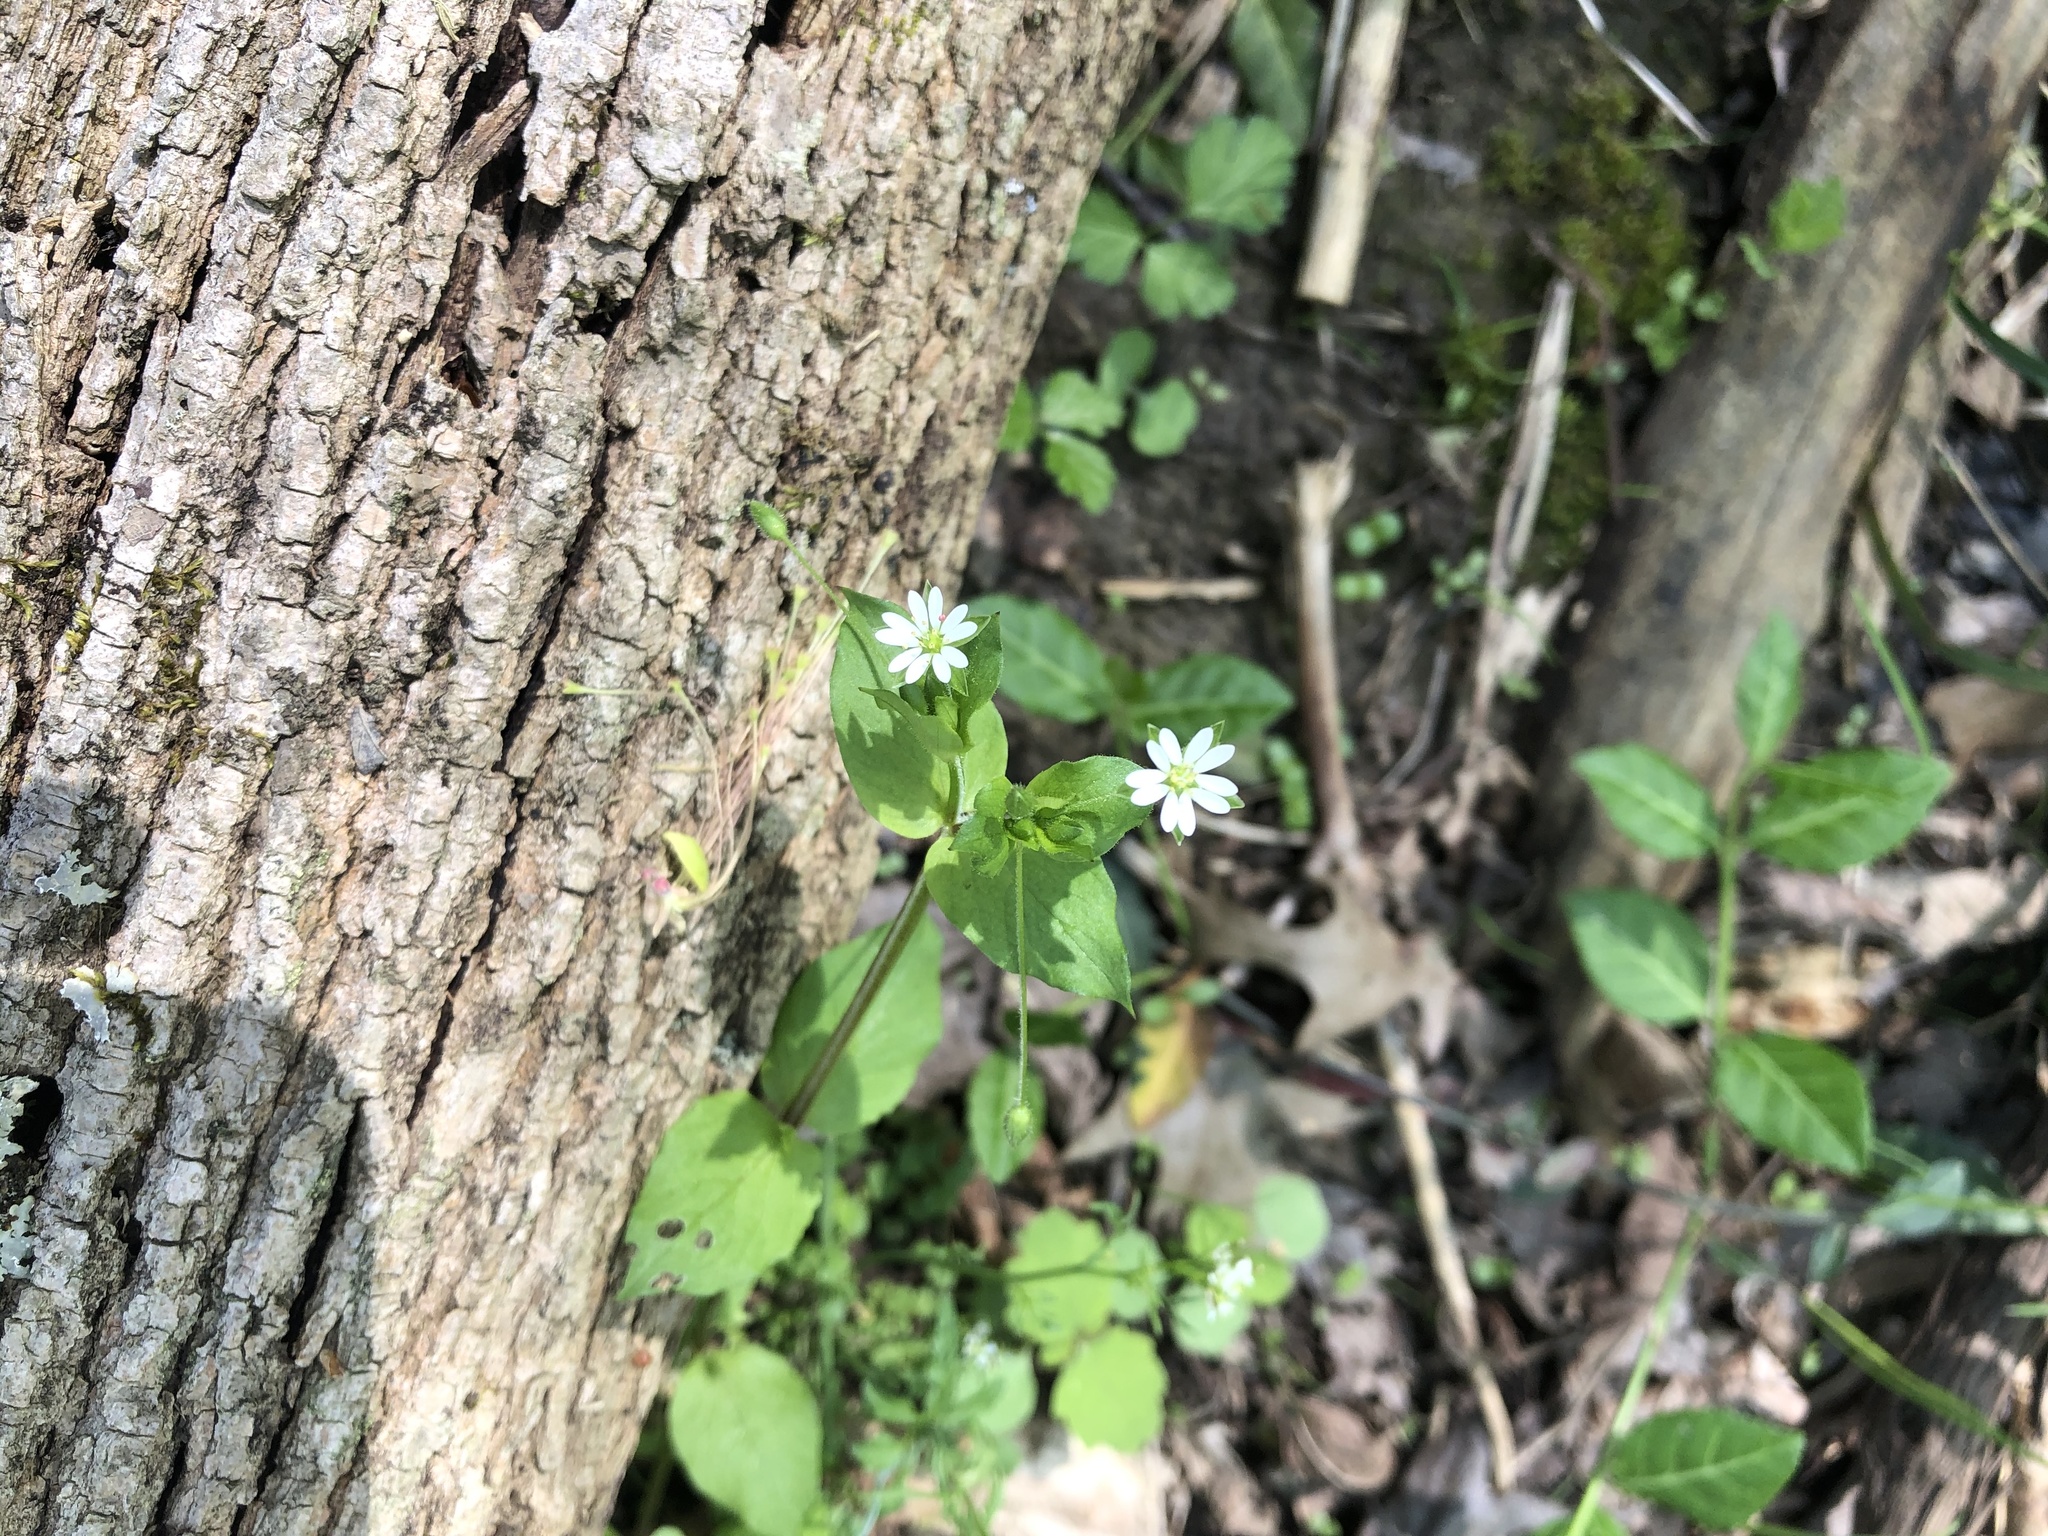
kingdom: Plantae
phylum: Tracheophyta
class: Magnoliopsida
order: Caryophyllales
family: Caryophyllaceae
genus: Stellaria
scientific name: Stellaria media
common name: Common chickweed
